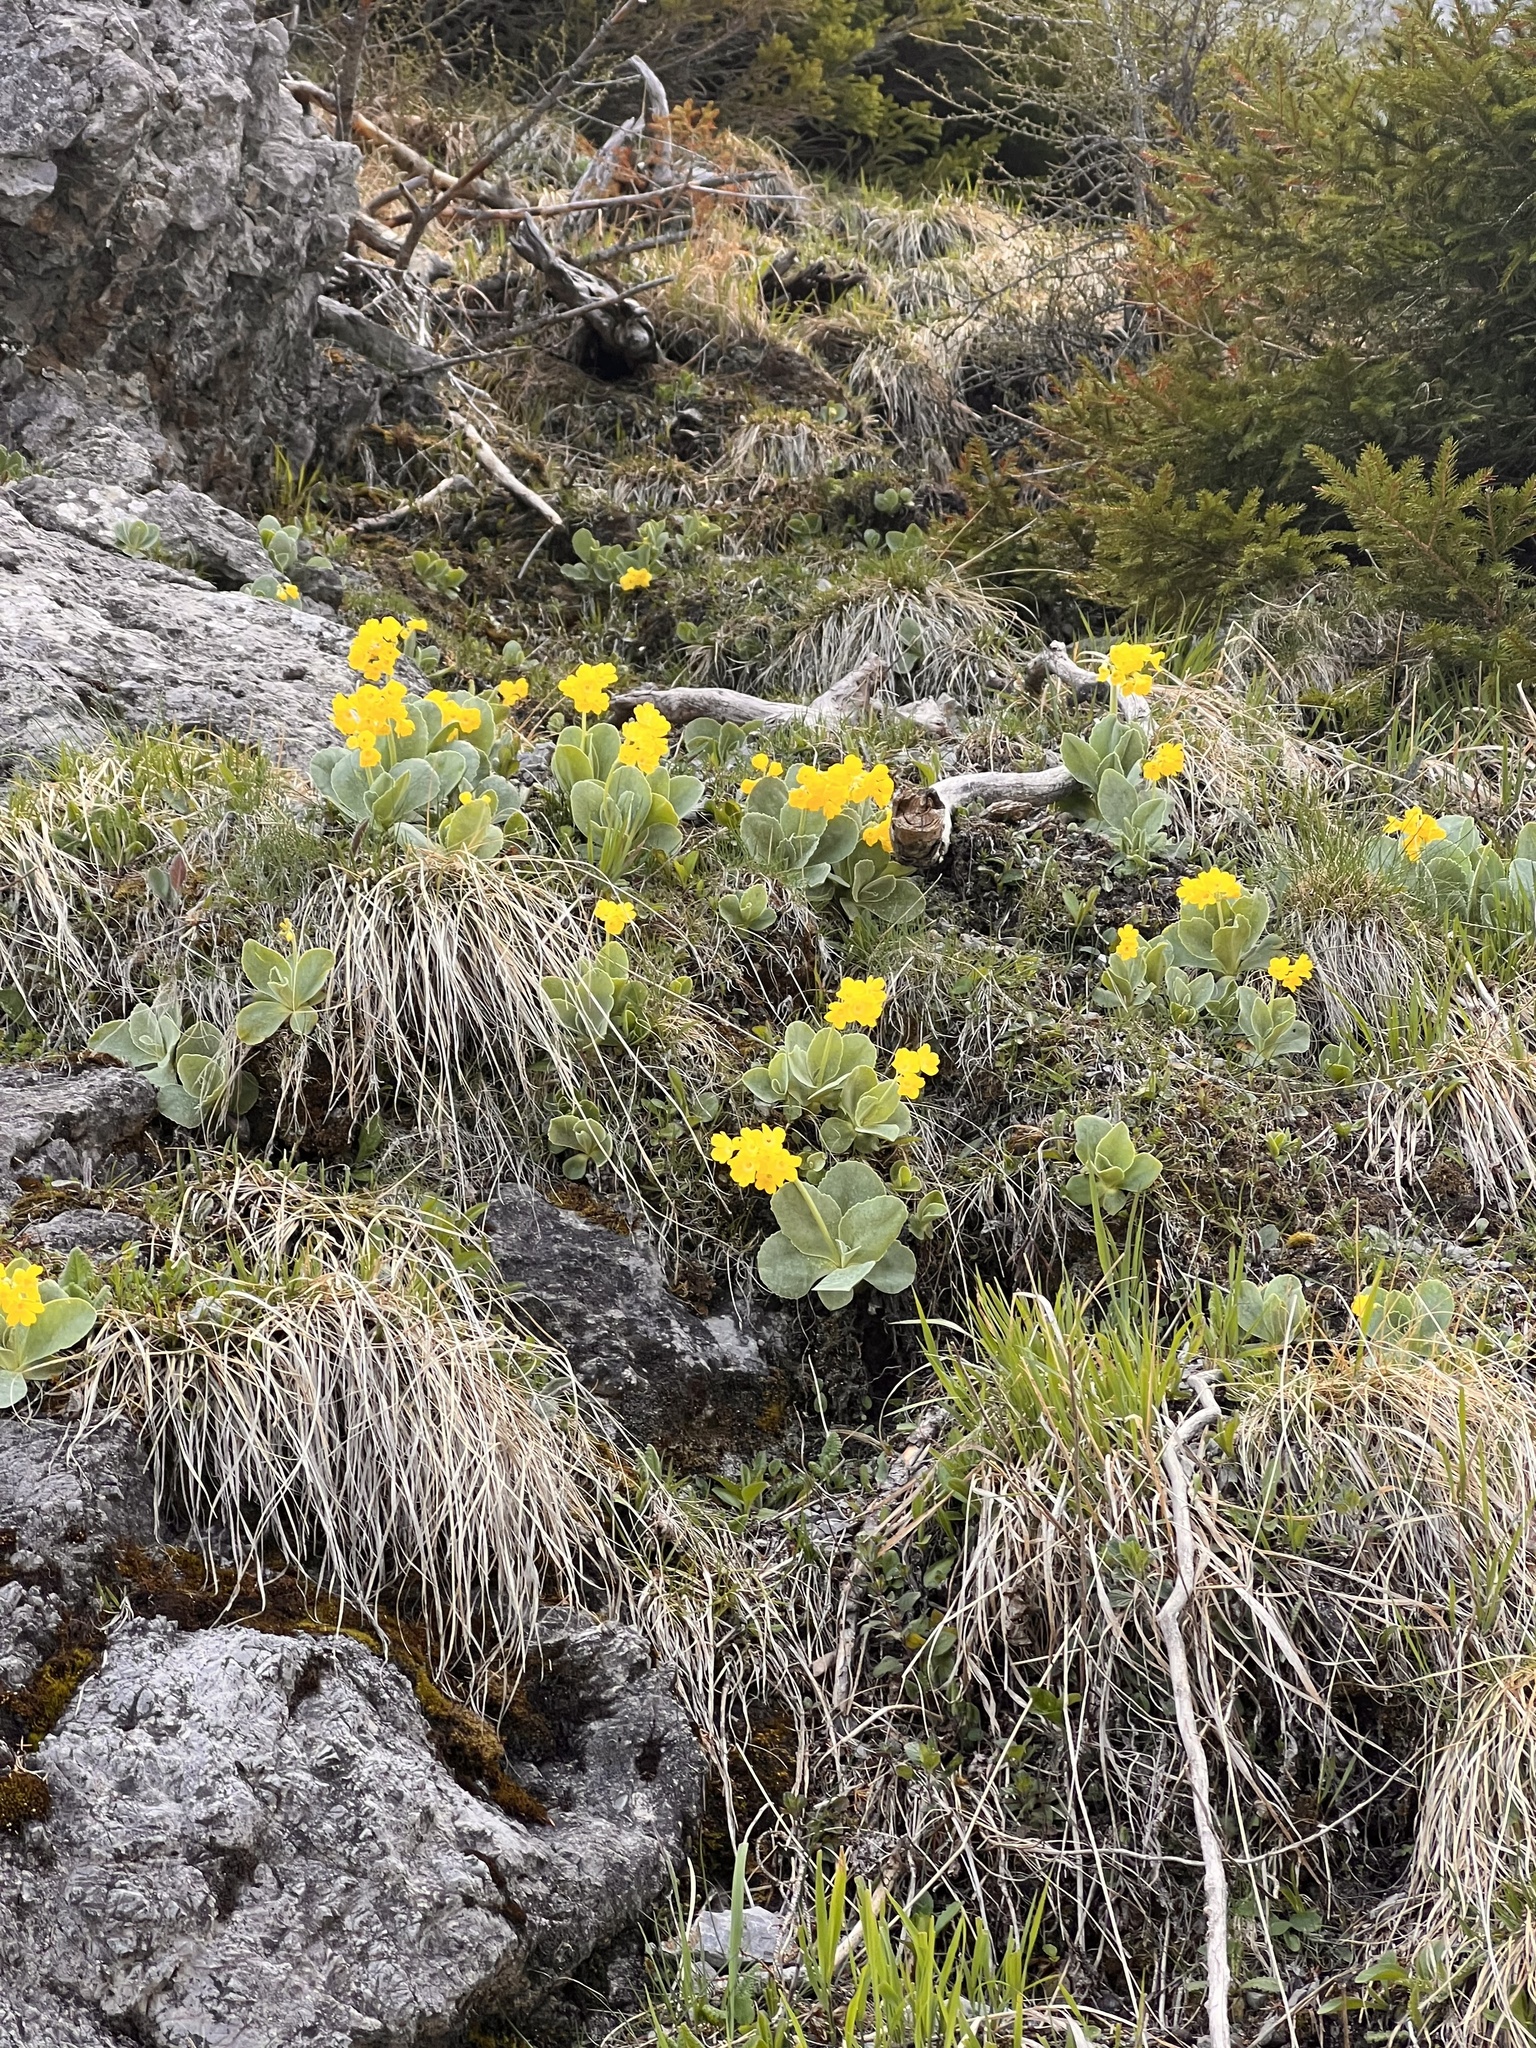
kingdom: Plantae
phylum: Tracheophyta
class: Magnoliopsida
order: Ericales
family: Primulaceae
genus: Primula
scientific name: Primula auricula
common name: Auricula
